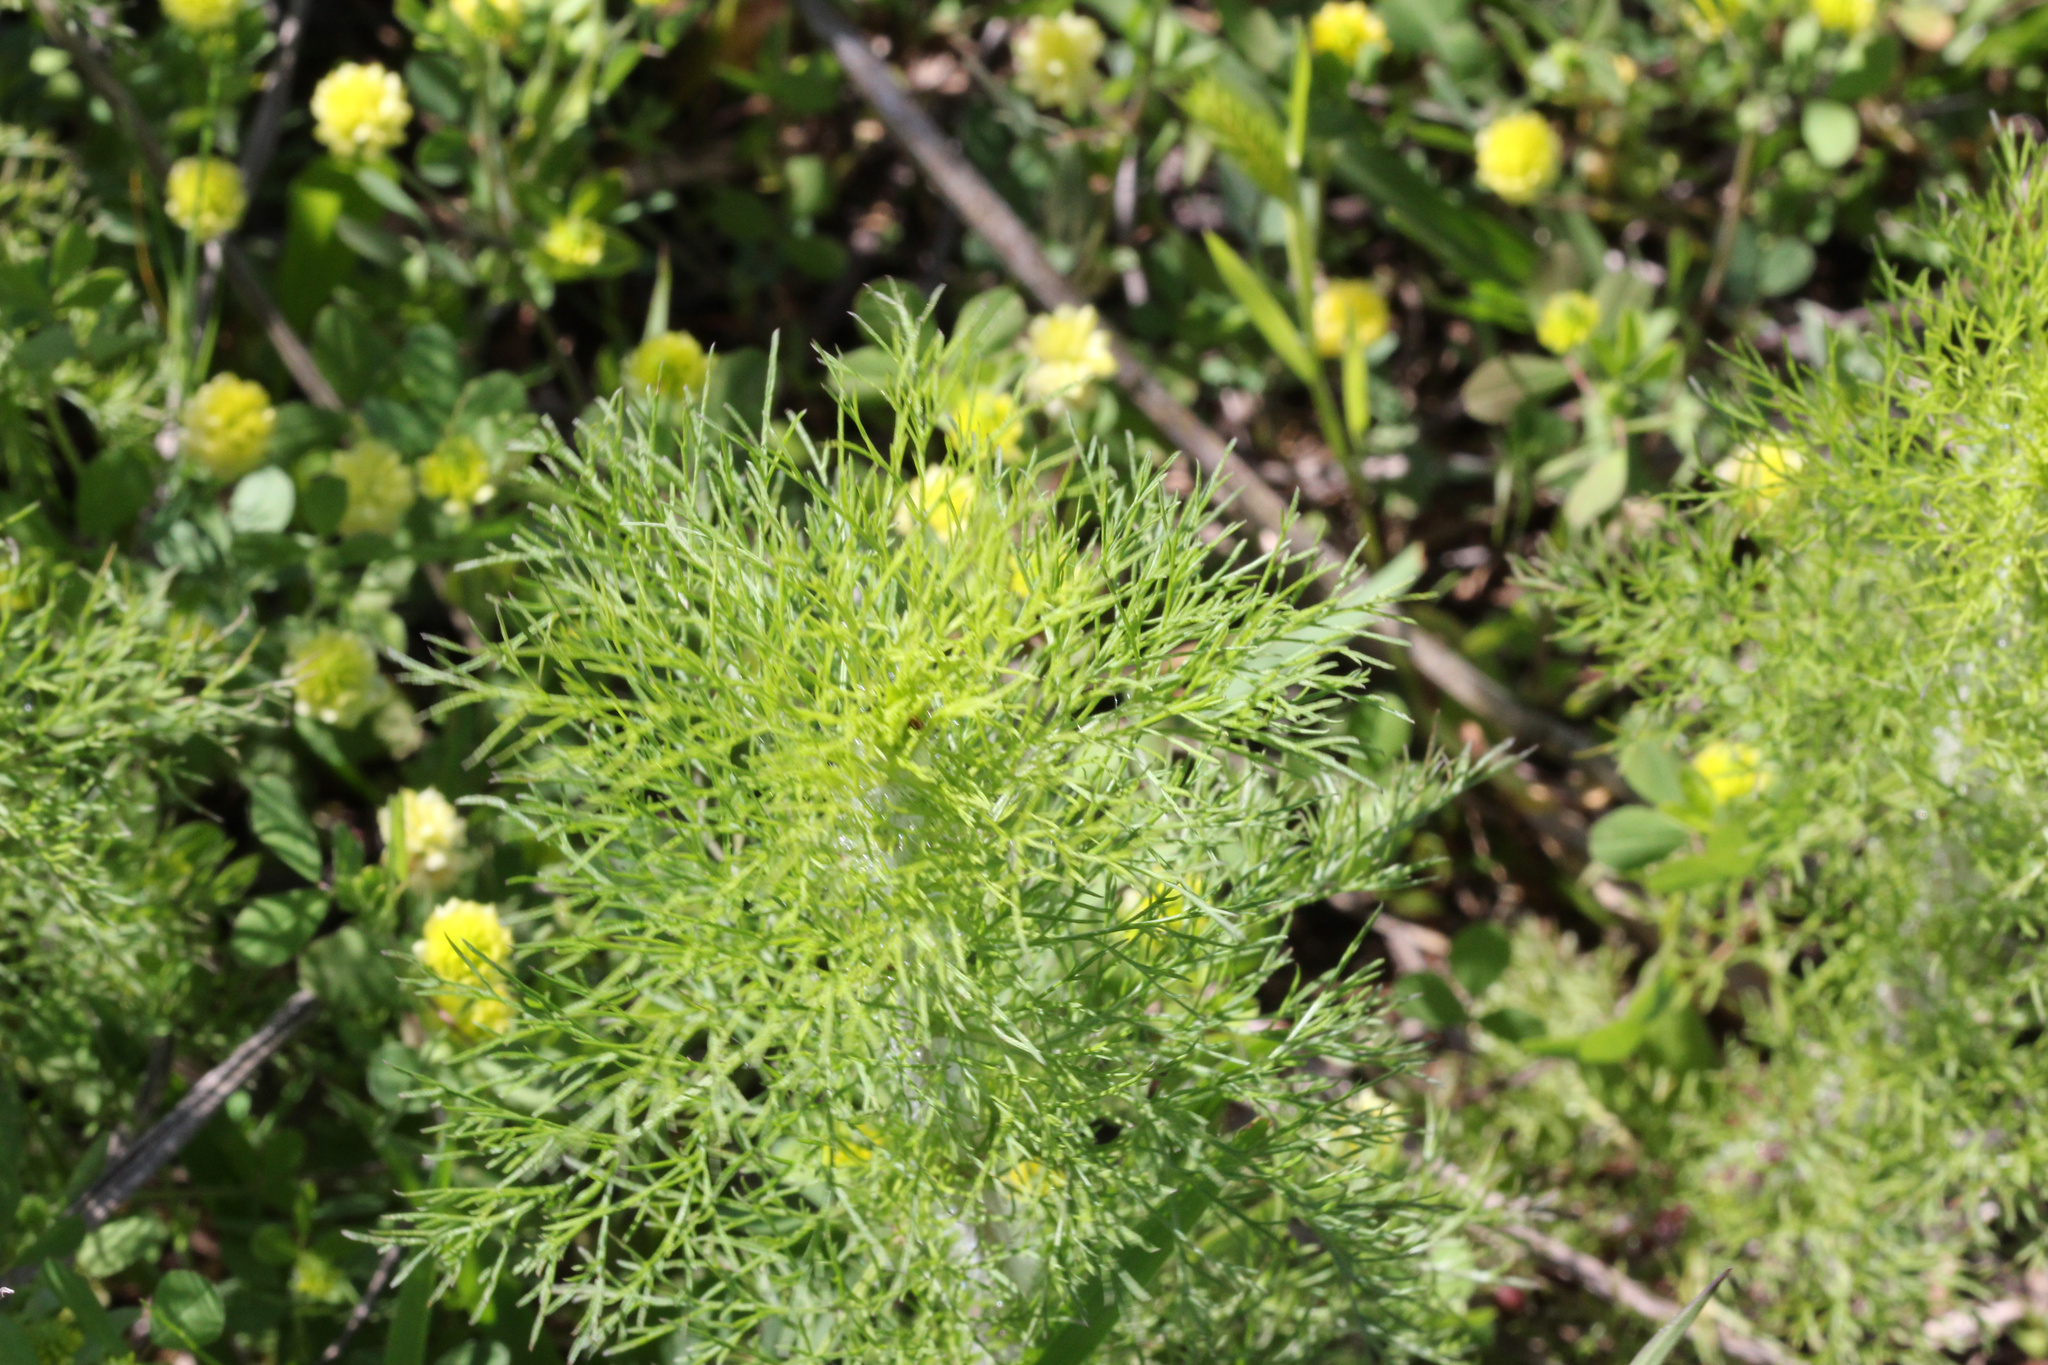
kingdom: Plantae
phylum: Tracheophyta
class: Magnoliopsida
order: Asterales
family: Asteraceae
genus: Eupatorium
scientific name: Eupatorium capillifolium
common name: Dog-fennel
